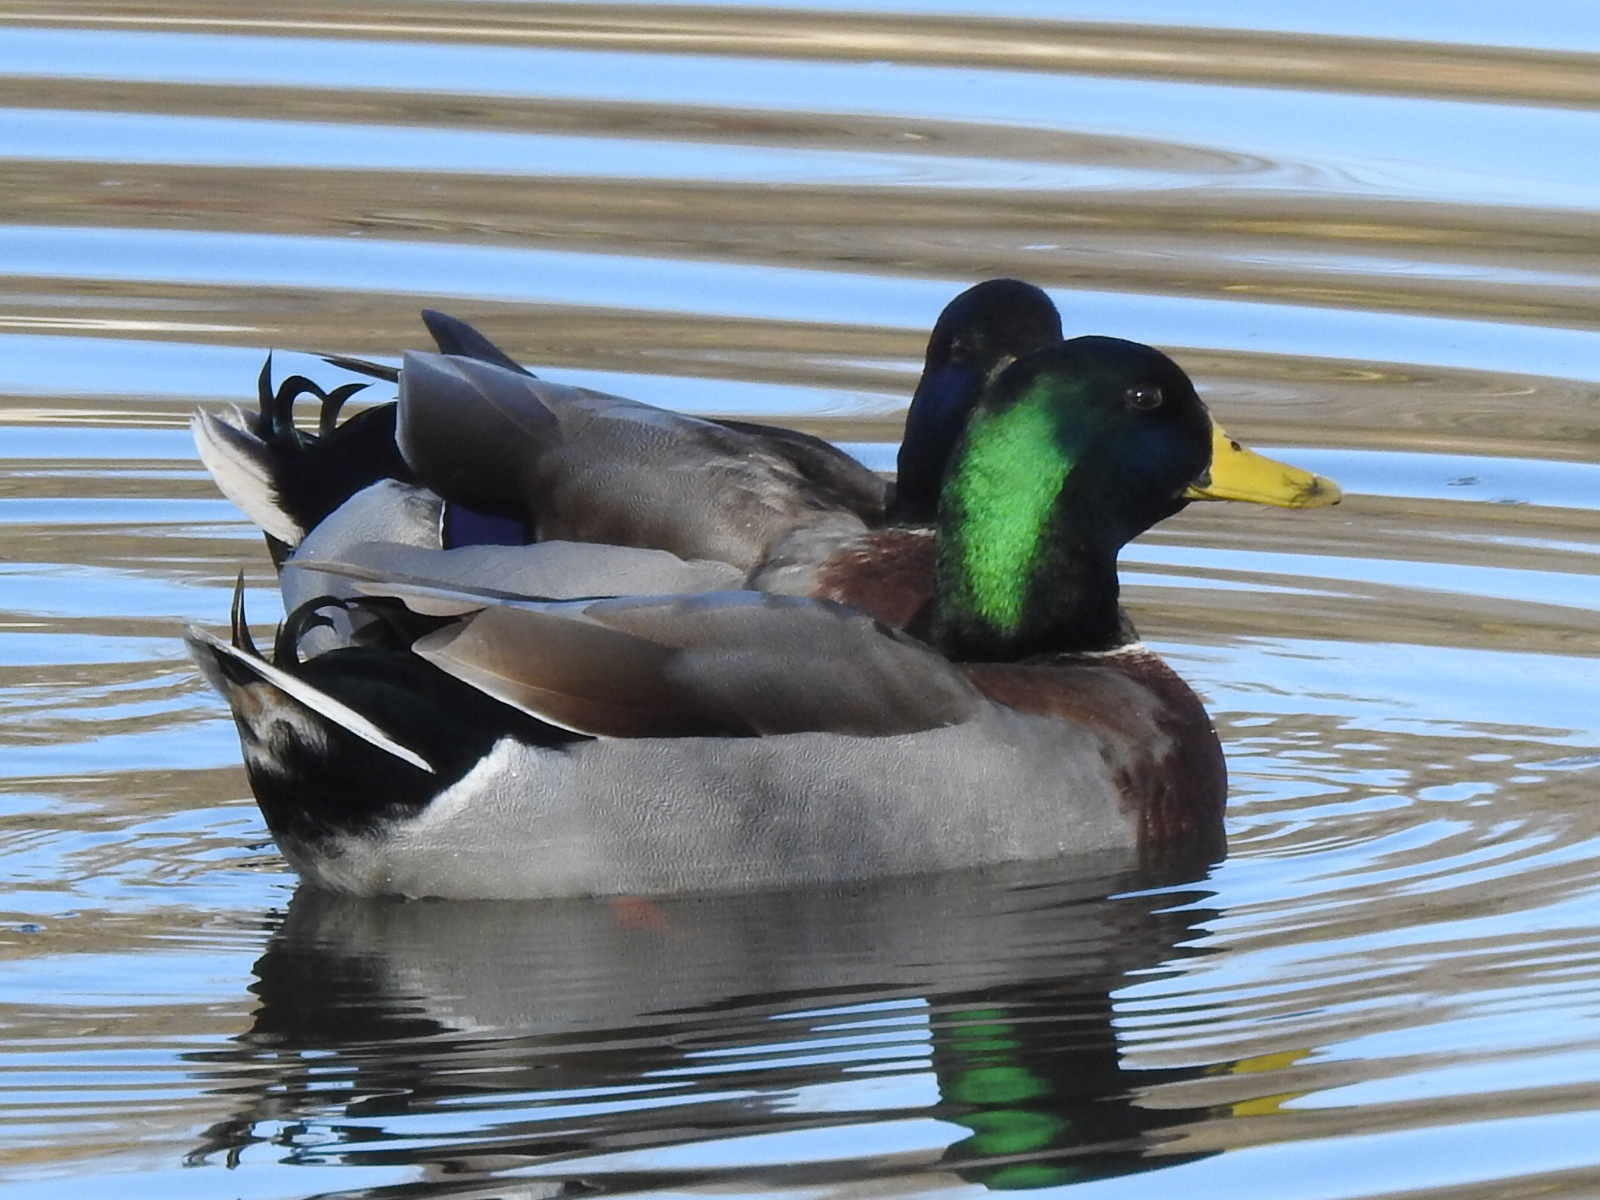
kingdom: Animalia
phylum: Chordata
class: Aves
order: Anseriformes
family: Anatidae
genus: Anas
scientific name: Anas platyrhynchos
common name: Mallard
